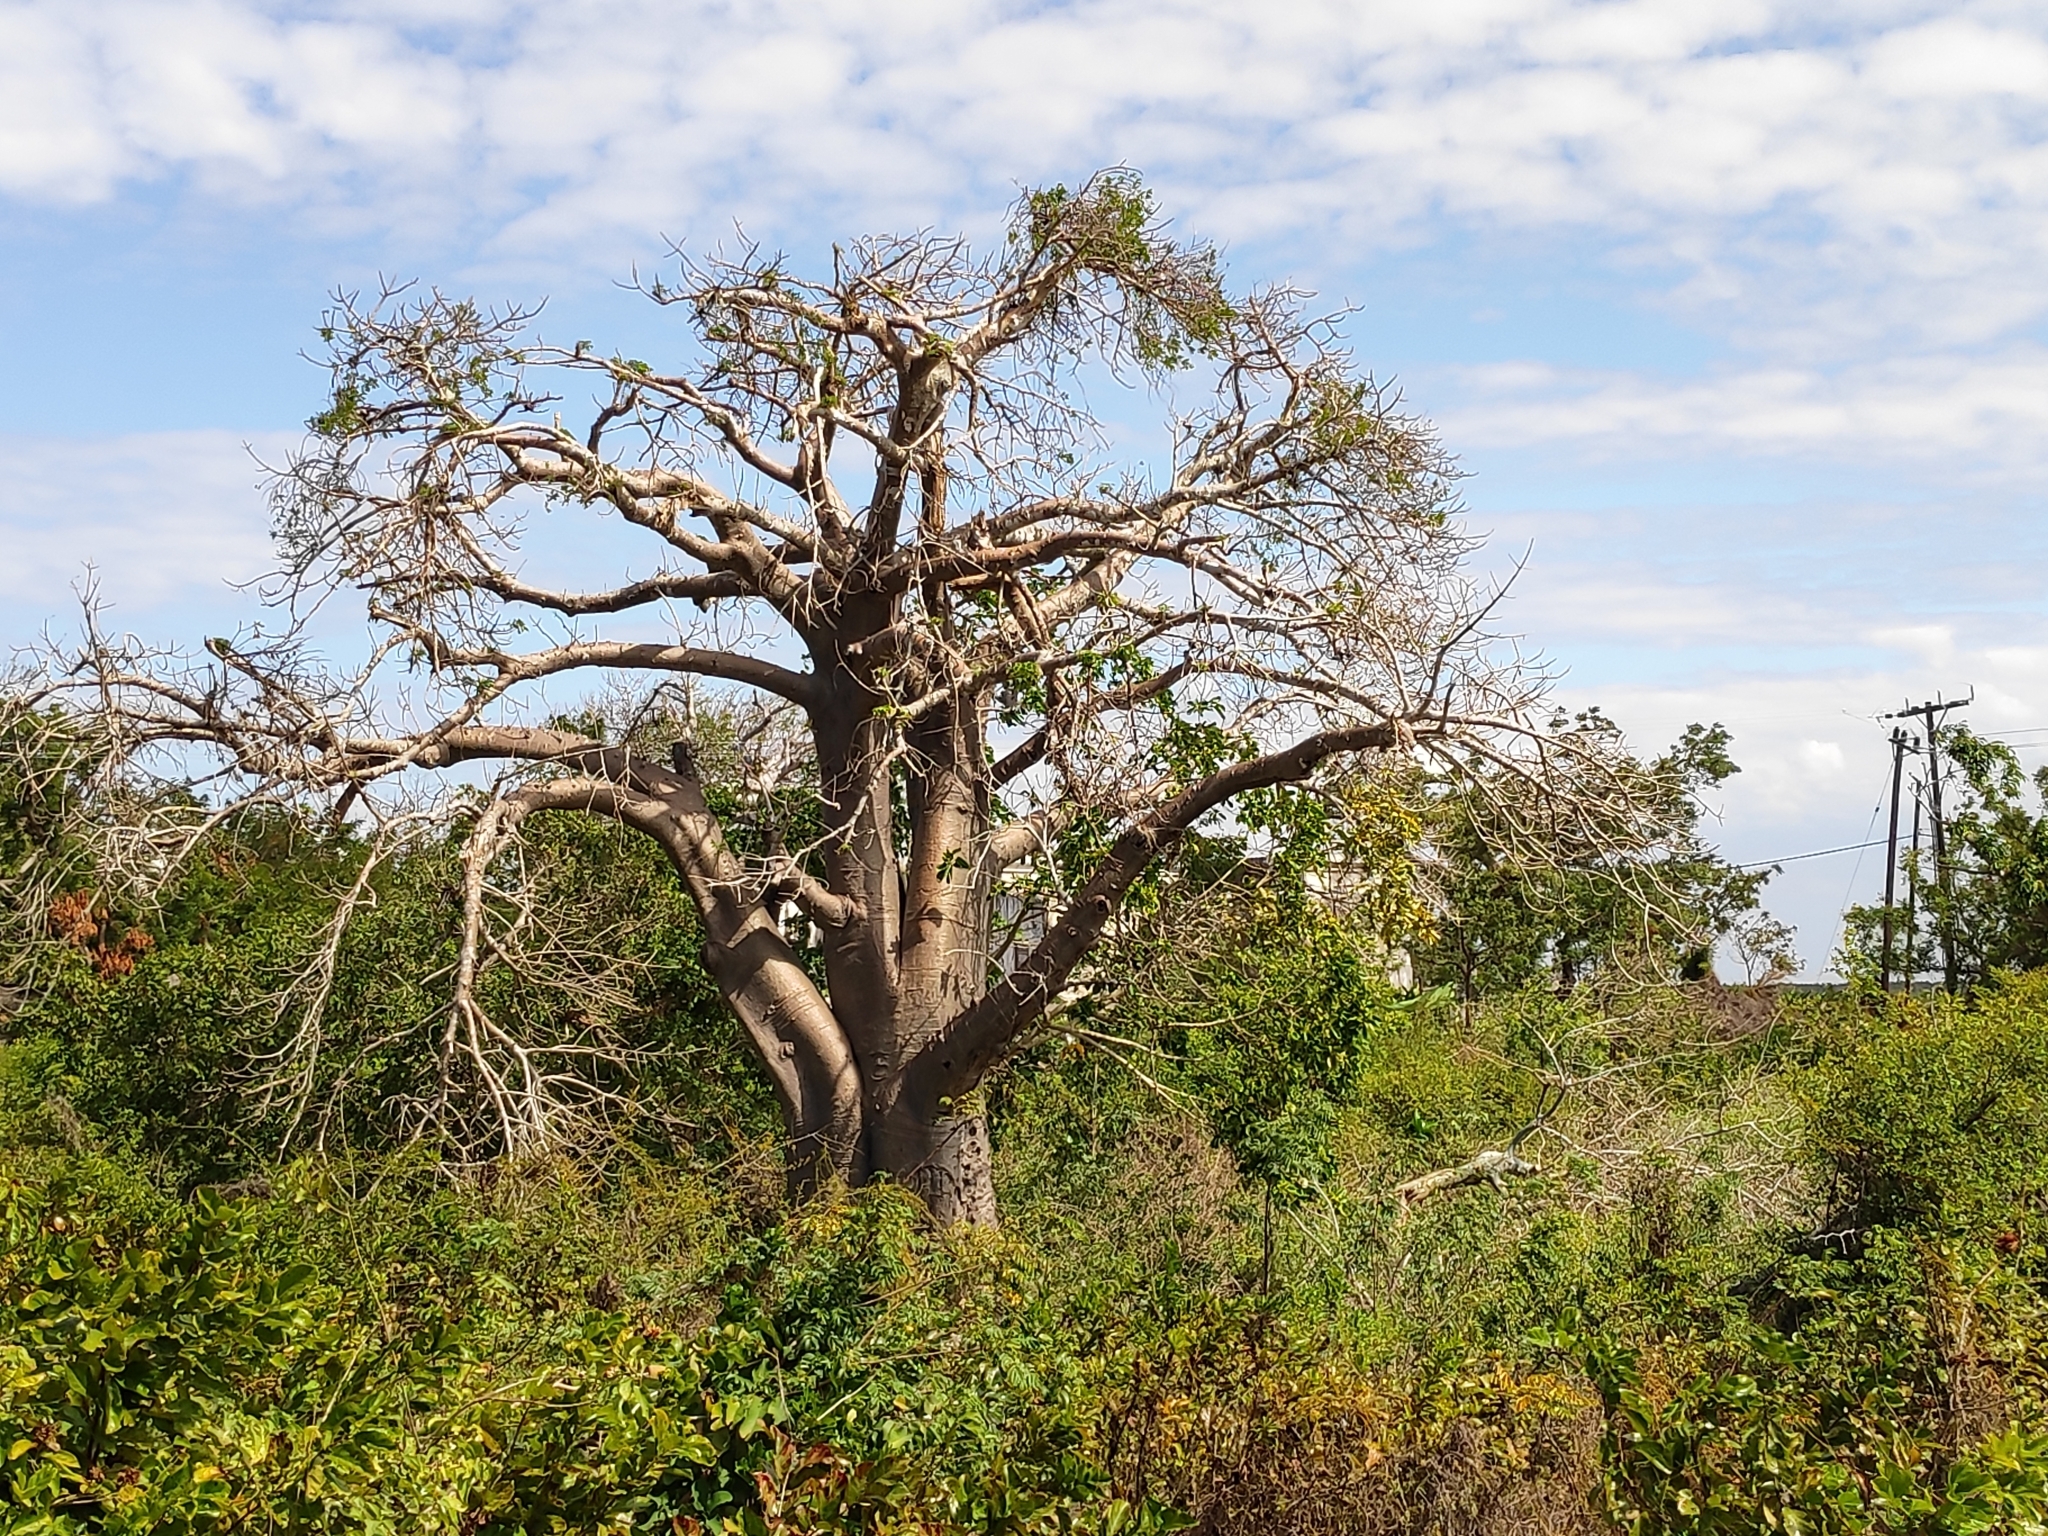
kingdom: Plantae
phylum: Tracheophyta
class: Magnoliopsida
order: Malvales
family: Malvaceae
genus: Adansonia
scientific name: Adansonia digitata
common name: Dead-rat-tree
